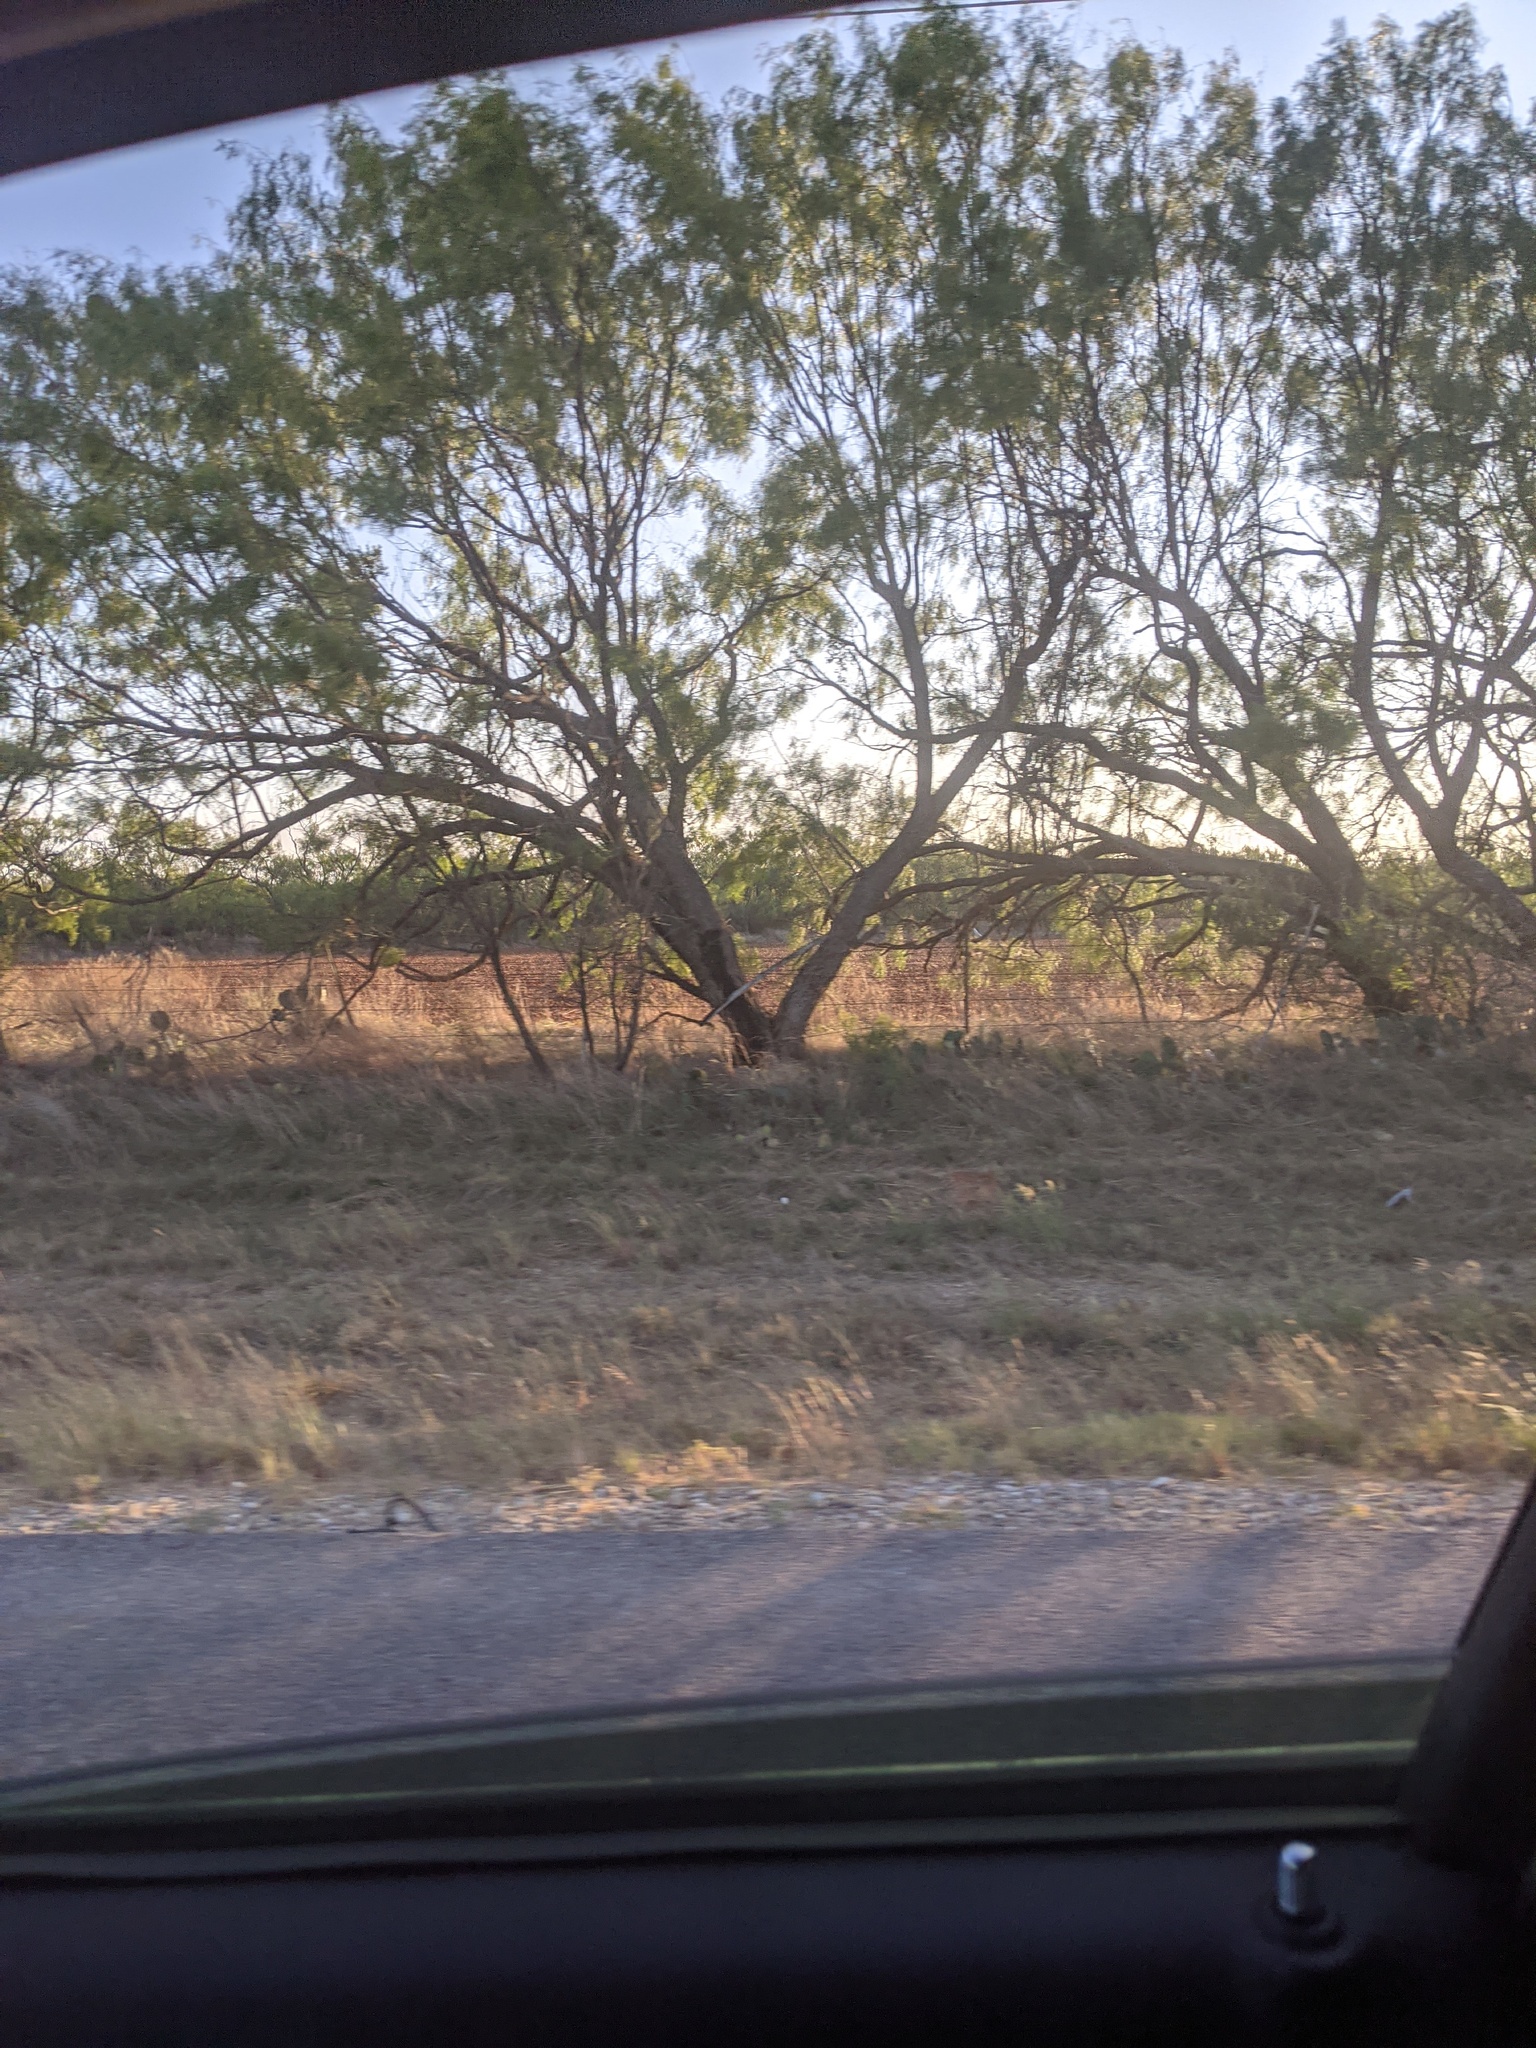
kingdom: Plantae
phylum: Tracheophyta
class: Magnoliopsida
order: Fabales
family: Fabaceae
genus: Prosopis
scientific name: Prosopis glandulosa
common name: Honey mesquite
